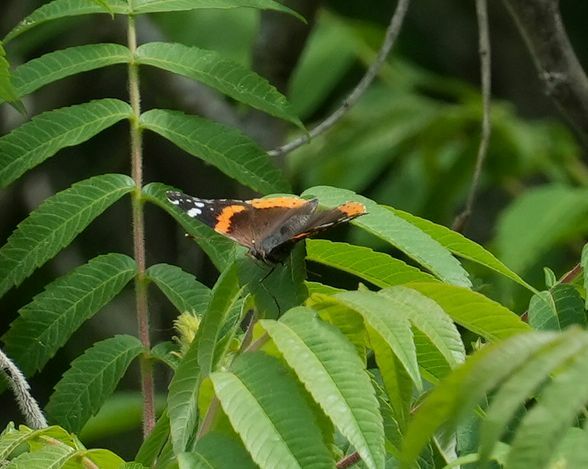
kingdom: Animalia
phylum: Arthropoda
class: Insecta
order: Lepidoptera
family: Nymphalidae
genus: Vanessa
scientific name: Vanessa atalanta
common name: Red admiral
